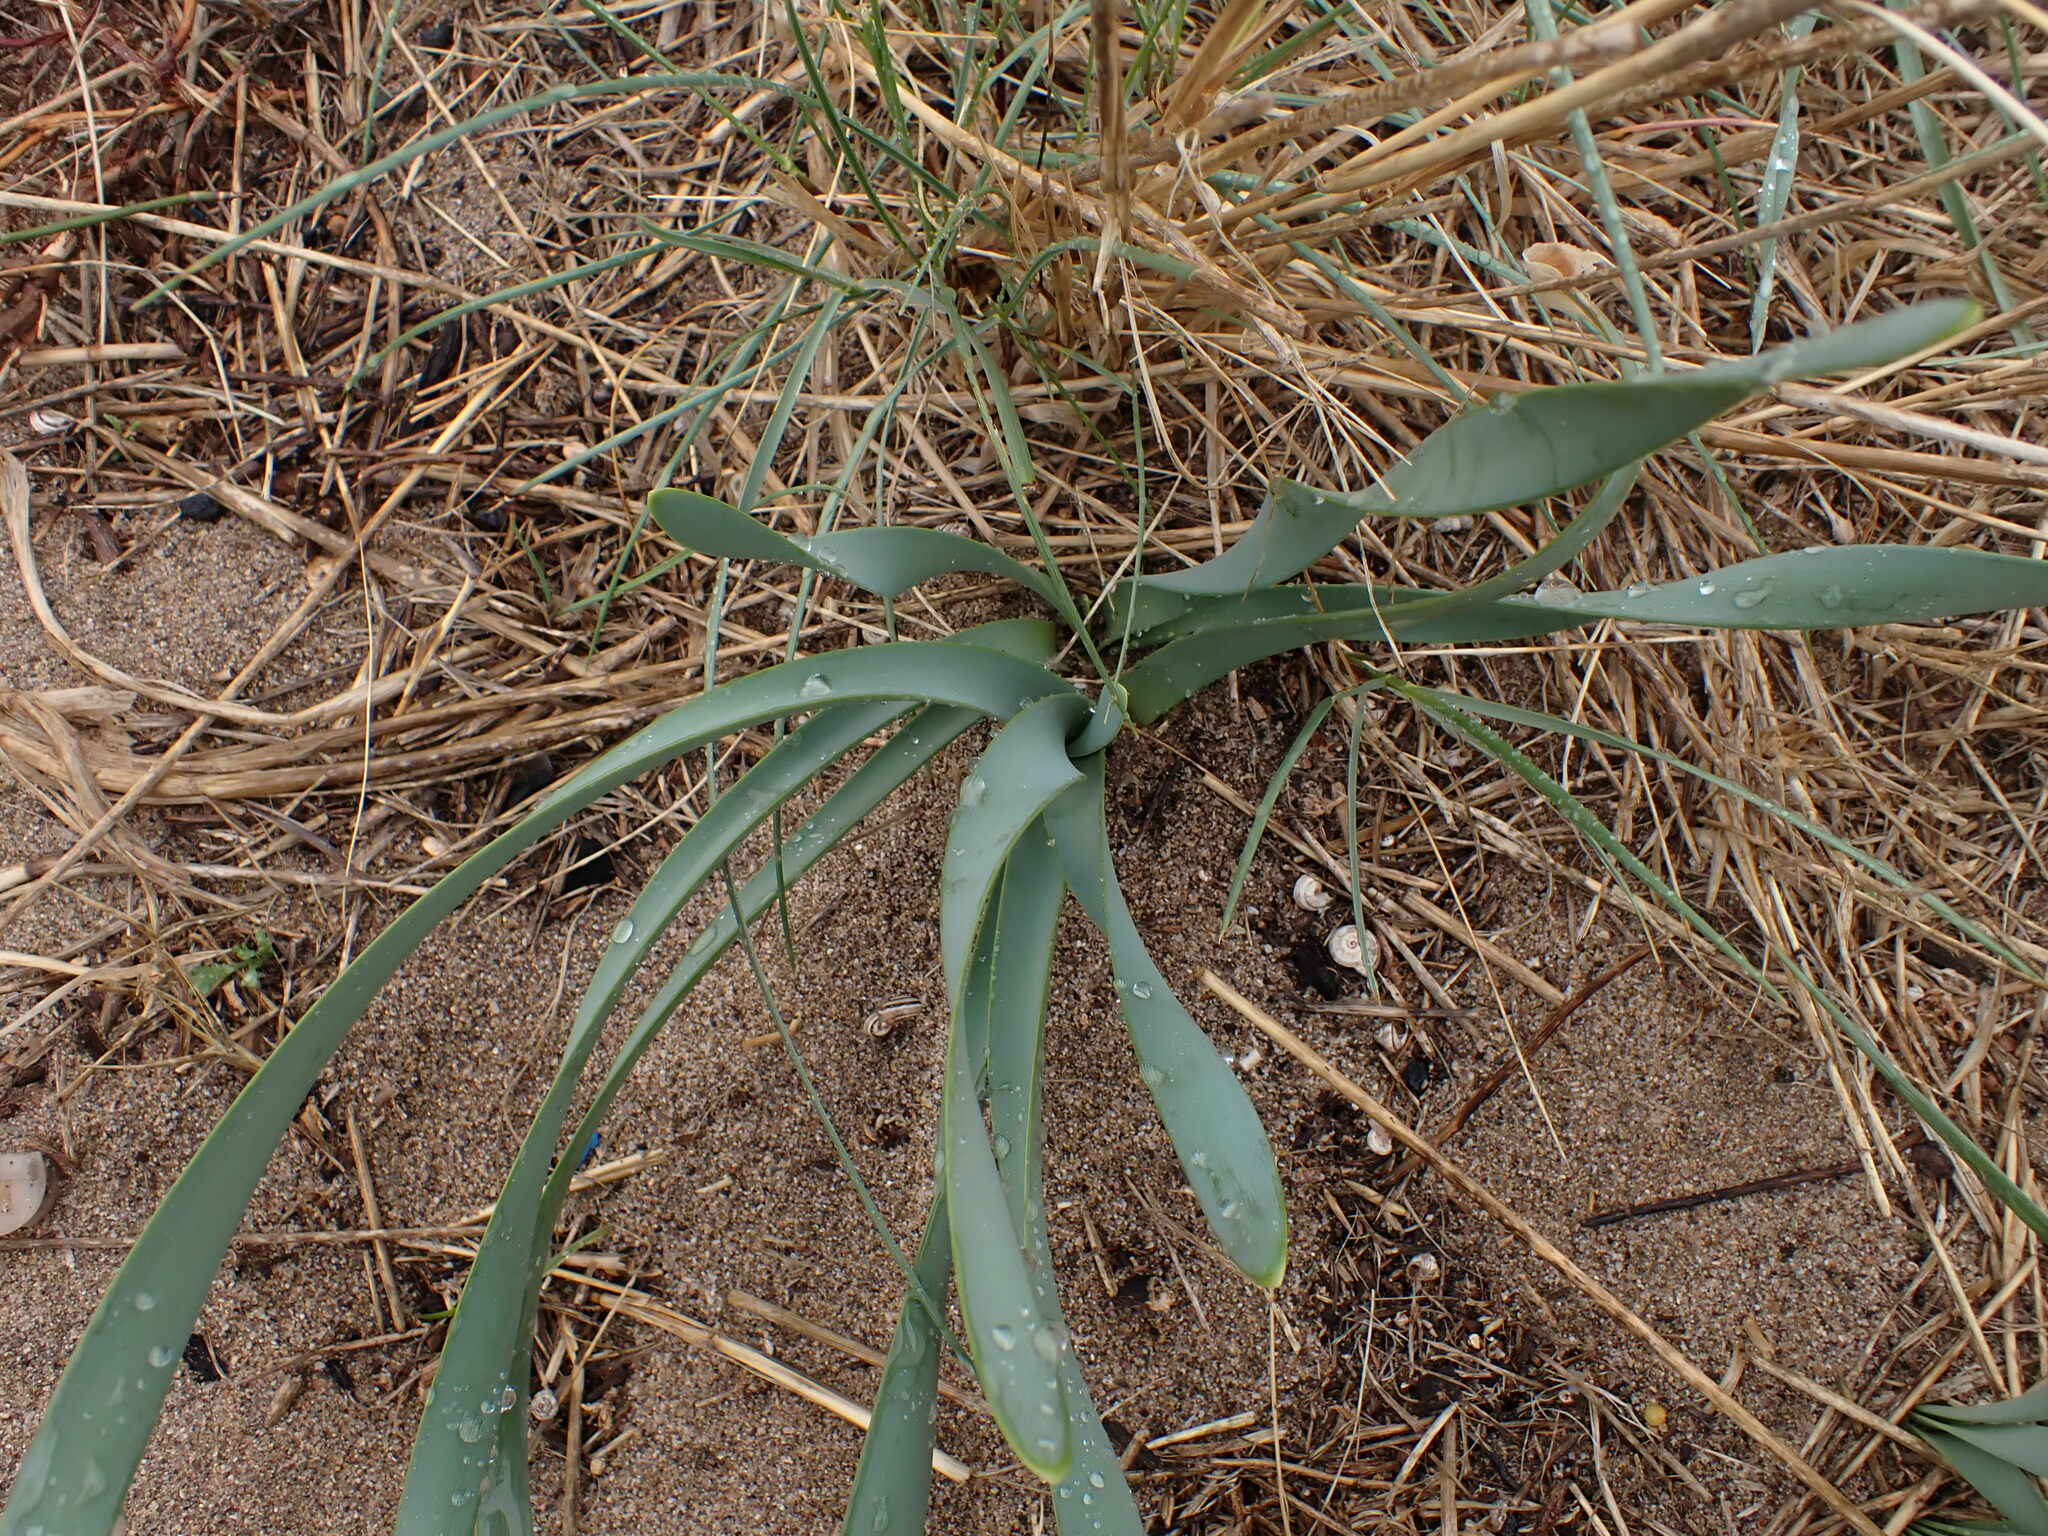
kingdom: Plantae
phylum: Tracheophyta
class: Liliopsida
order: Asparagales
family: Amaryllidaceae
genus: Pancratium
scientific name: Pancratium maritimum
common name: Sea-daffodil
